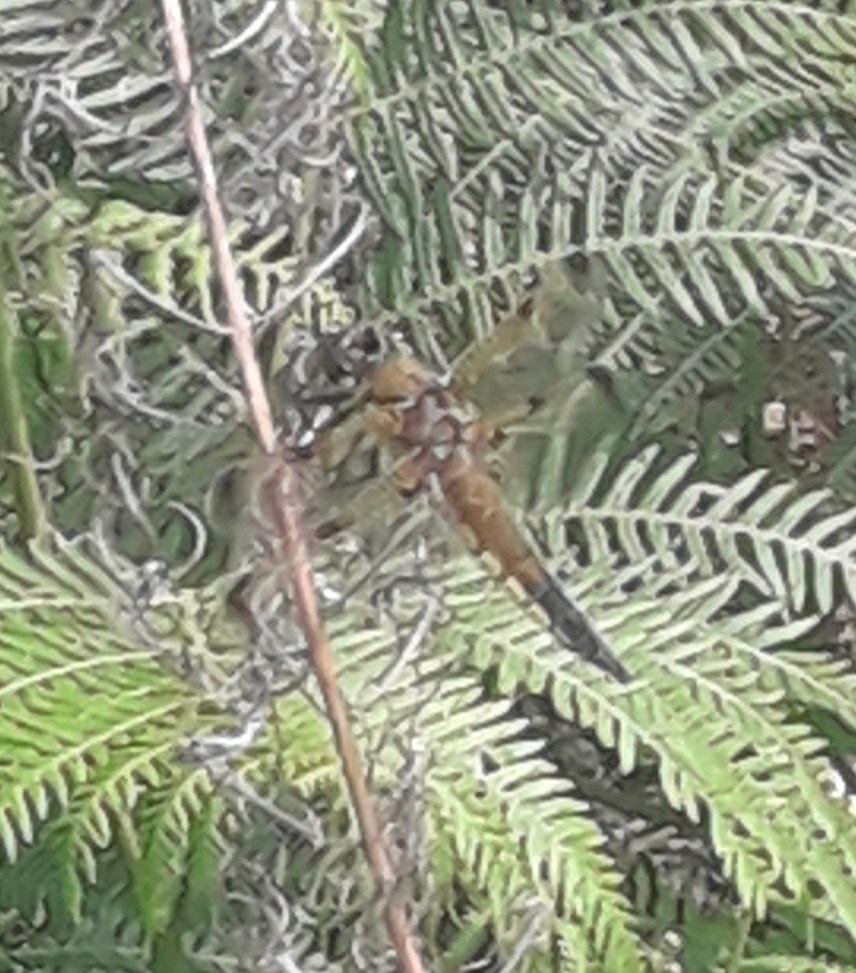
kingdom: Animalia
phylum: Arthropoda
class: Insecta
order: Odonata
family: Libellulidae
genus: Libellula
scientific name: Libellula quadrimaculata
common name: Four-spotted chaser
